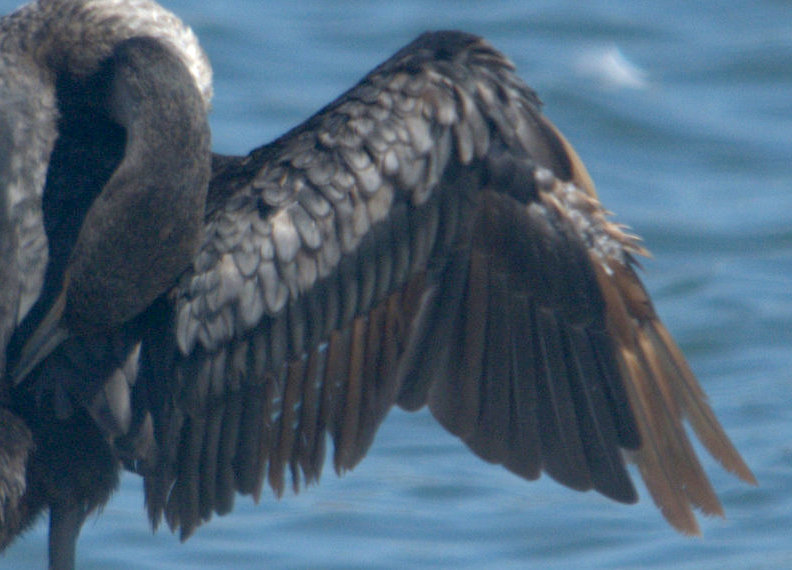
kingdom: Animalia
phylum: Chordata
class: Aves
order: Suliformes
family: Phalacrocoracidae
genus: Phalacrocorax
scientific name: Phalacrocorax auritus
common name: Double-crested cormorant
